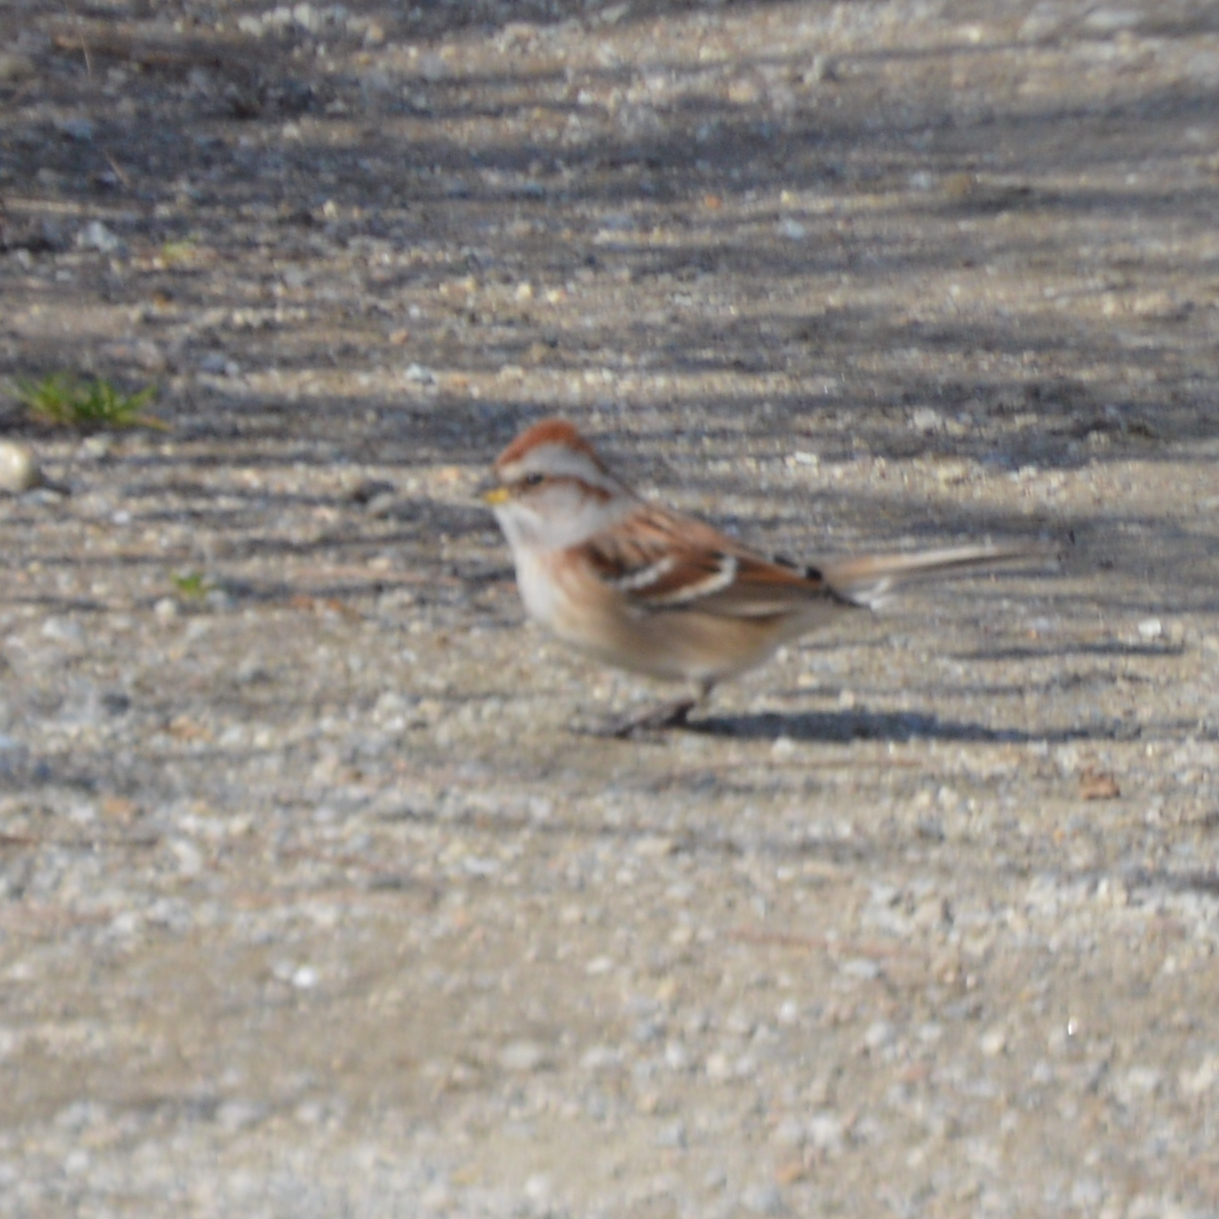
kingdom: Animalia
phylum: Chordata
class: Aves
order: Passeriformes
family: Passerellidae
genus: Spizelloides
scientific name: Spizelloides arborea
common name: American tree sparrow
